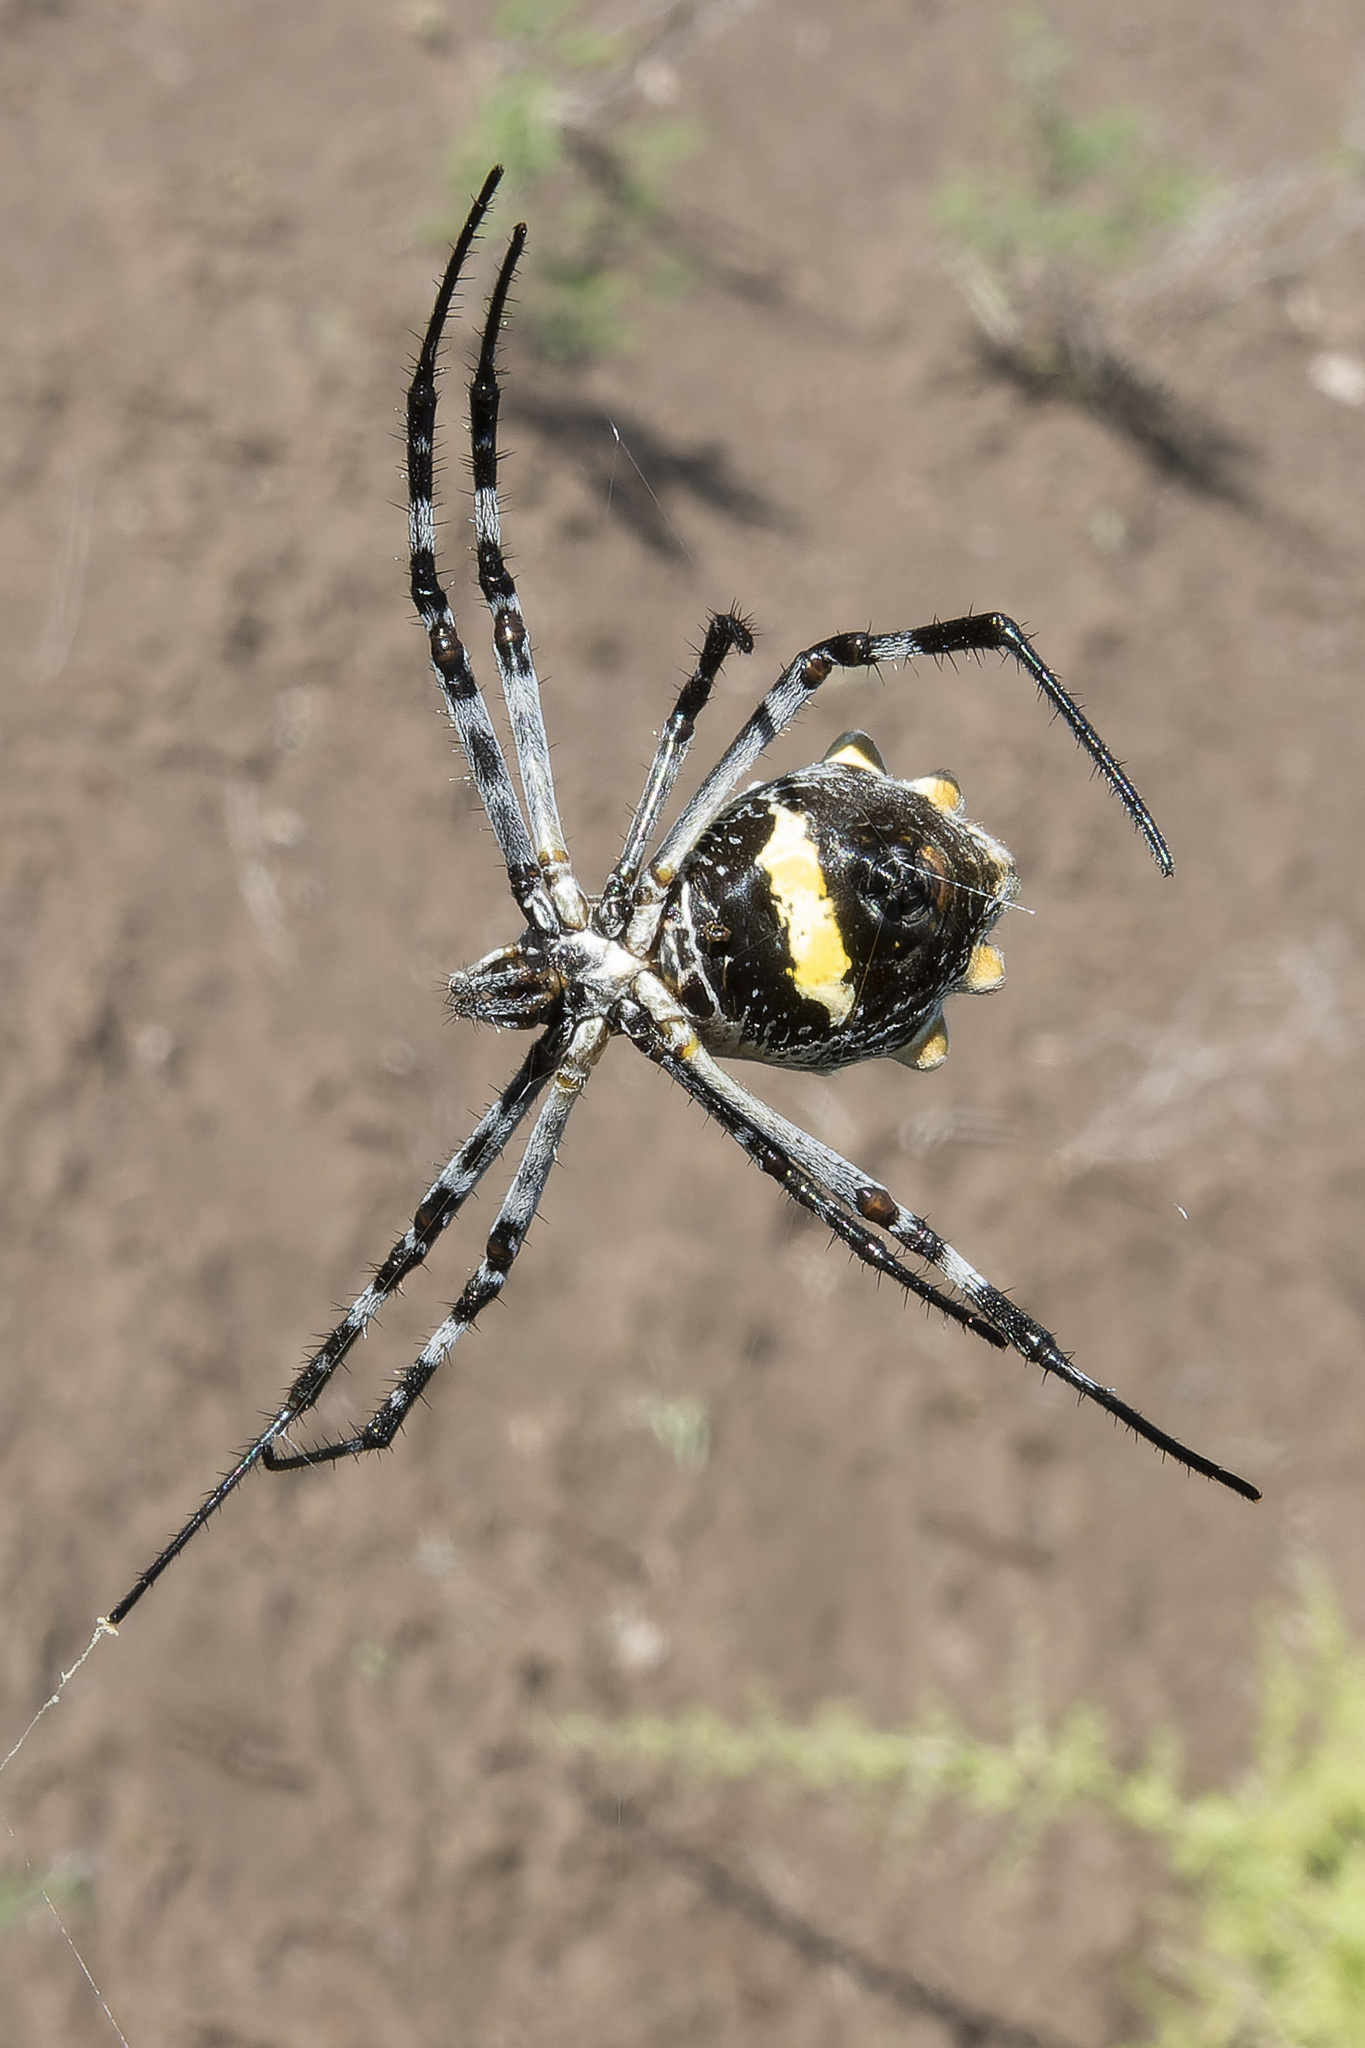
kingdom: Animalia
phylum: Arthropoda
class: Arachnida
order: Araneae
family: Araneidae
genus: Argiope
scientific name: Argiope argentata
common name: Orb weavers
